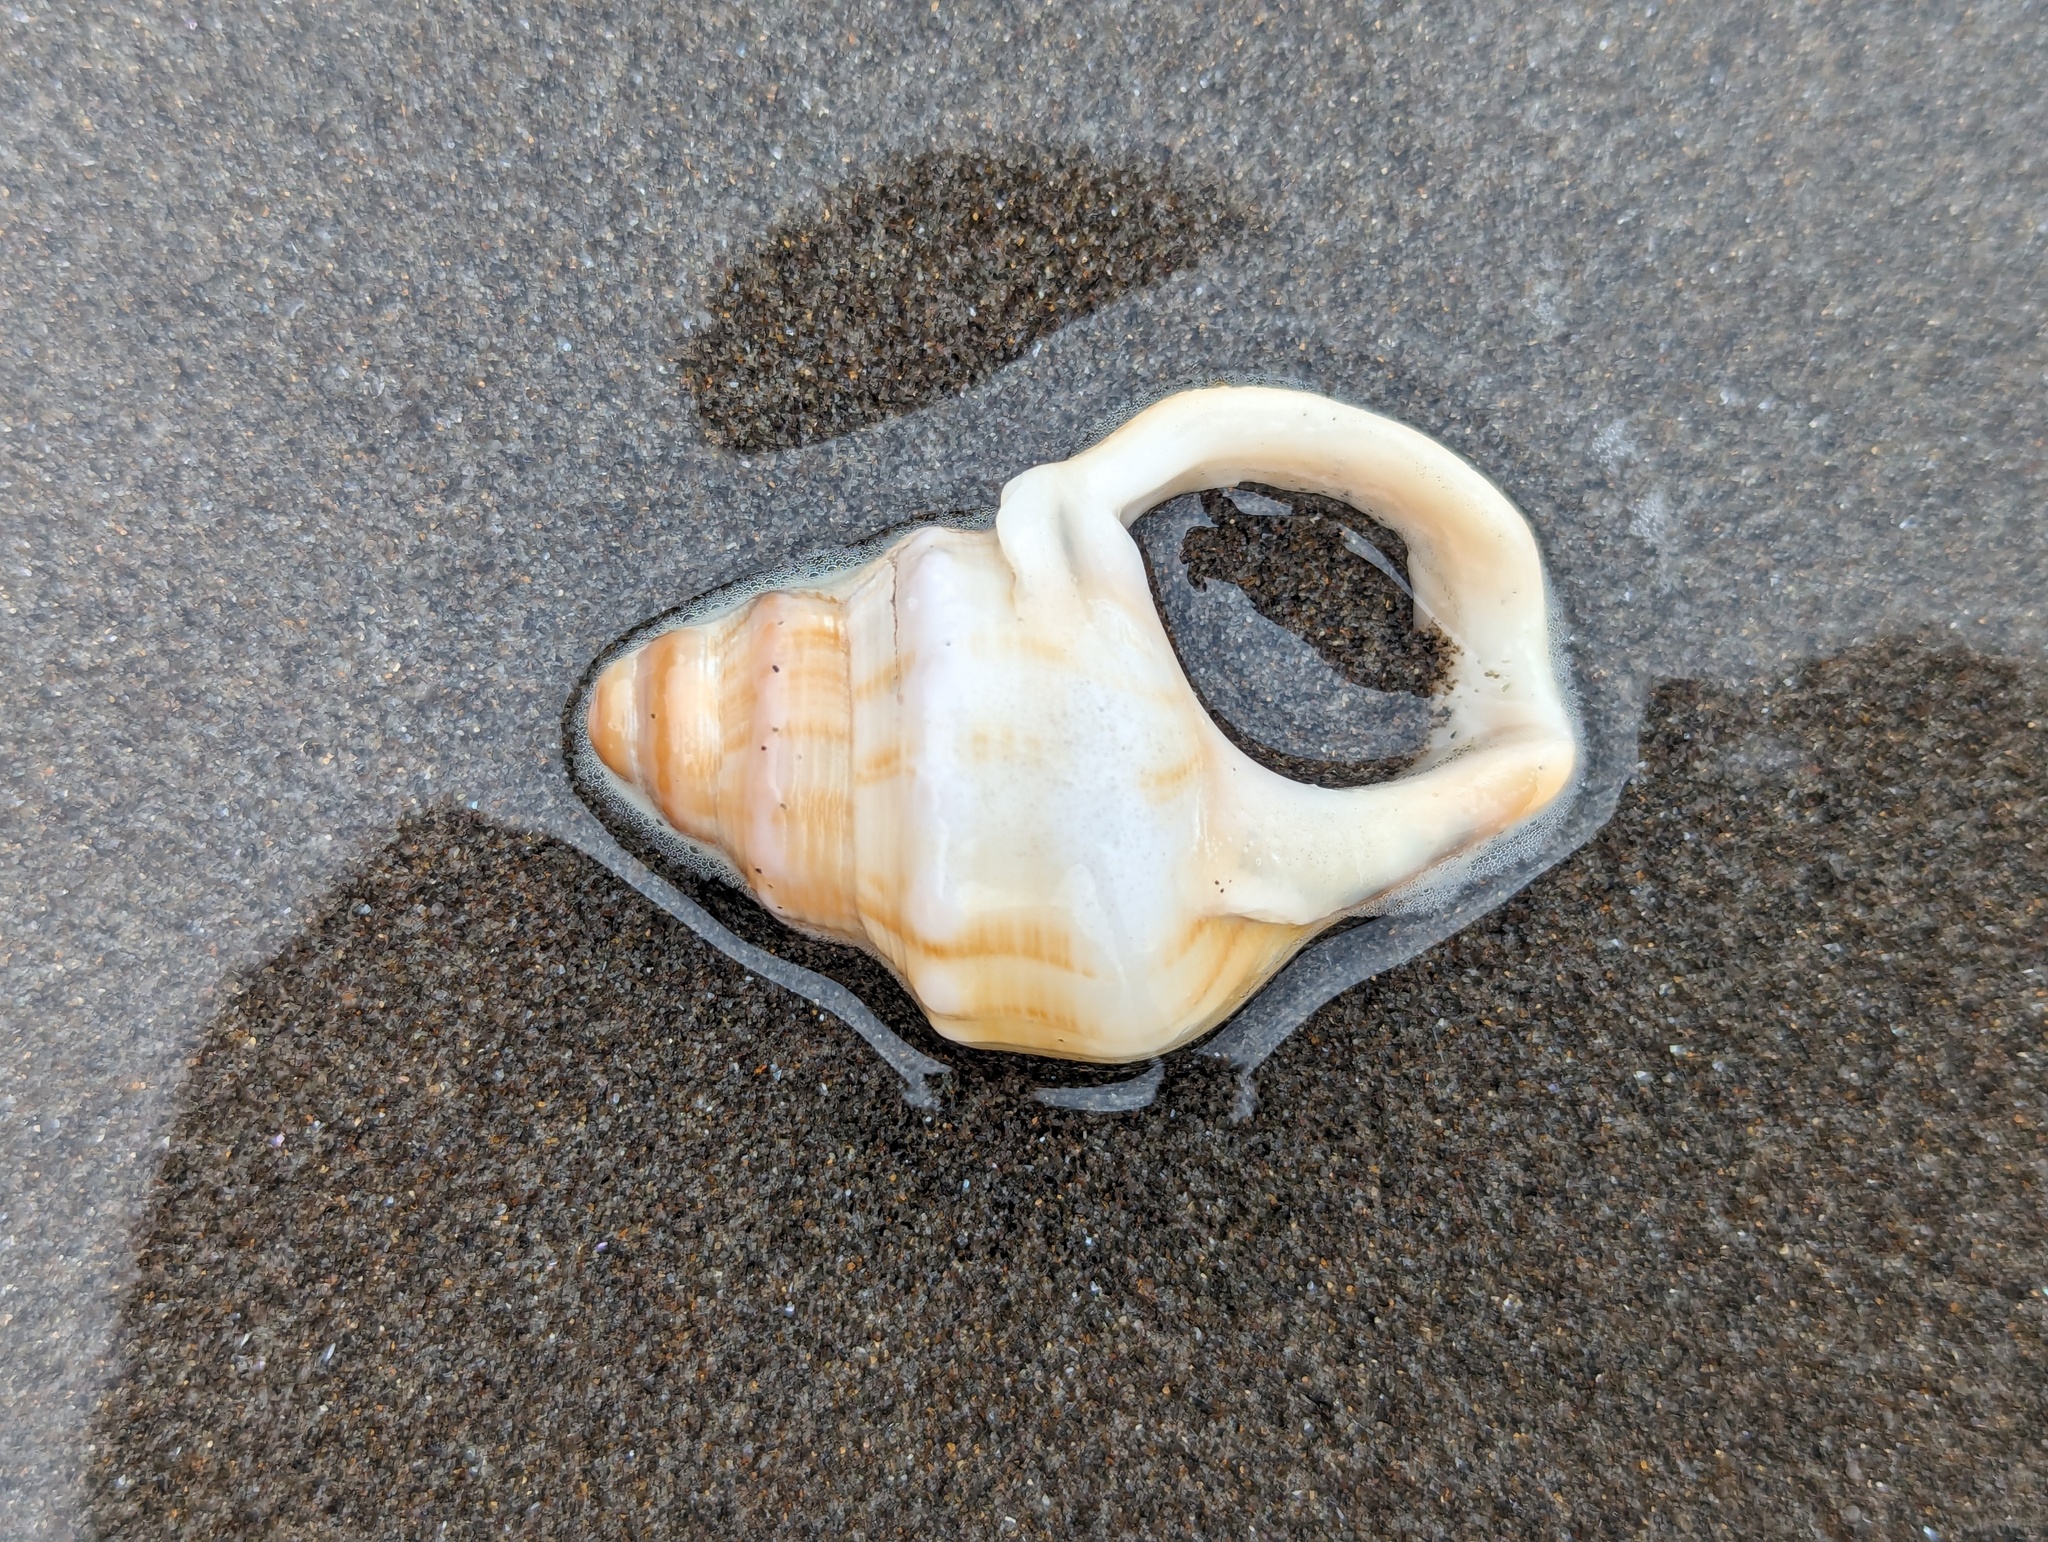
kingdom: Animalia
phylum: Mollusca
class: Gastropoda
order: Littorinimorpha
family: Struthiolariidae
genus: Struthiolaria
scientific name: Struthiolaria papulosa
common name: Large ostrich foot
